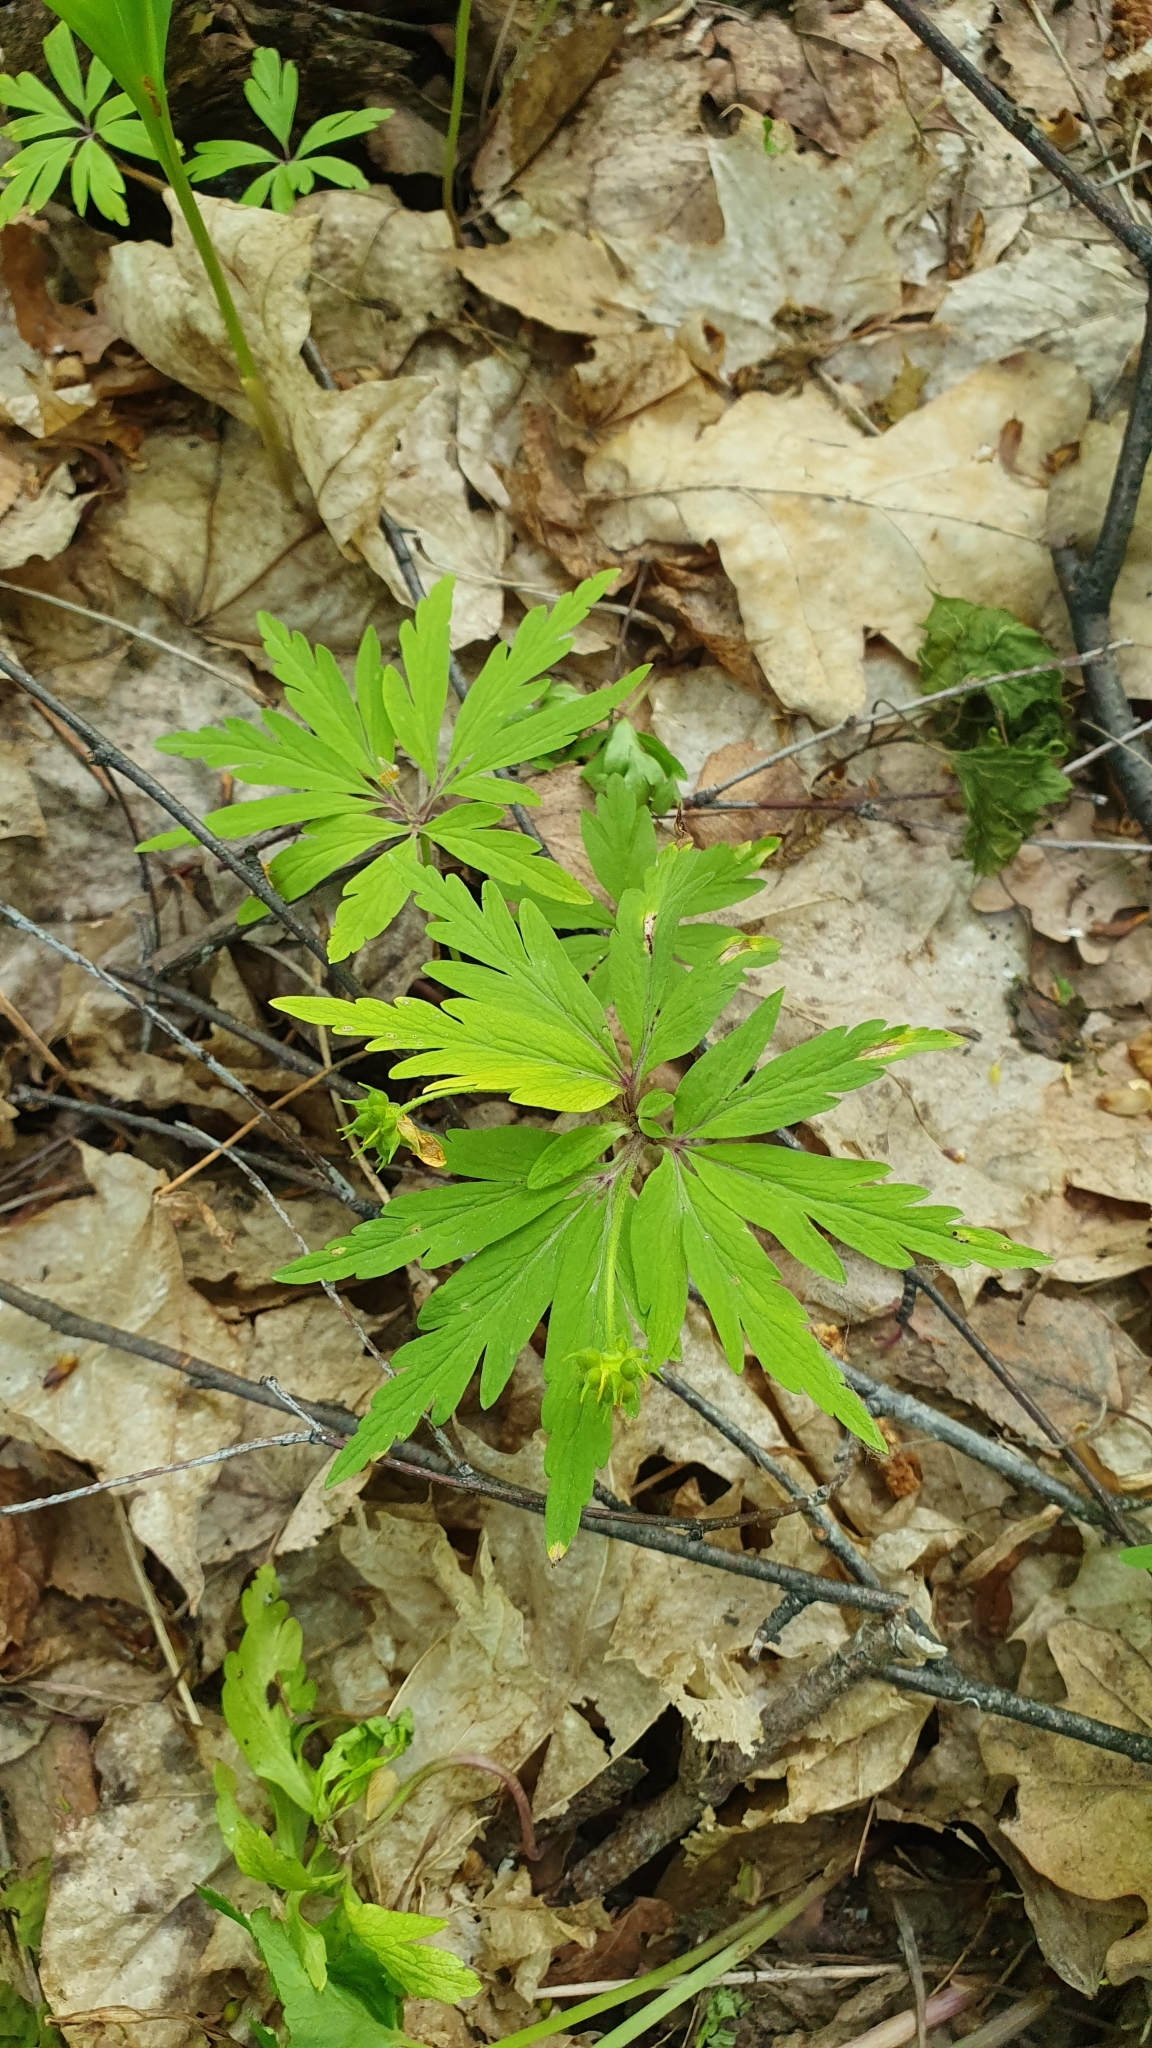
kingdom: Plantae
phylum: Tracheophyta
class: Magnoliopsida
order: Ranunculales
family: Ranunculaceae
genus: Anemone
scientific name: Anemone ranunculoides
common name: Yellow anemone
